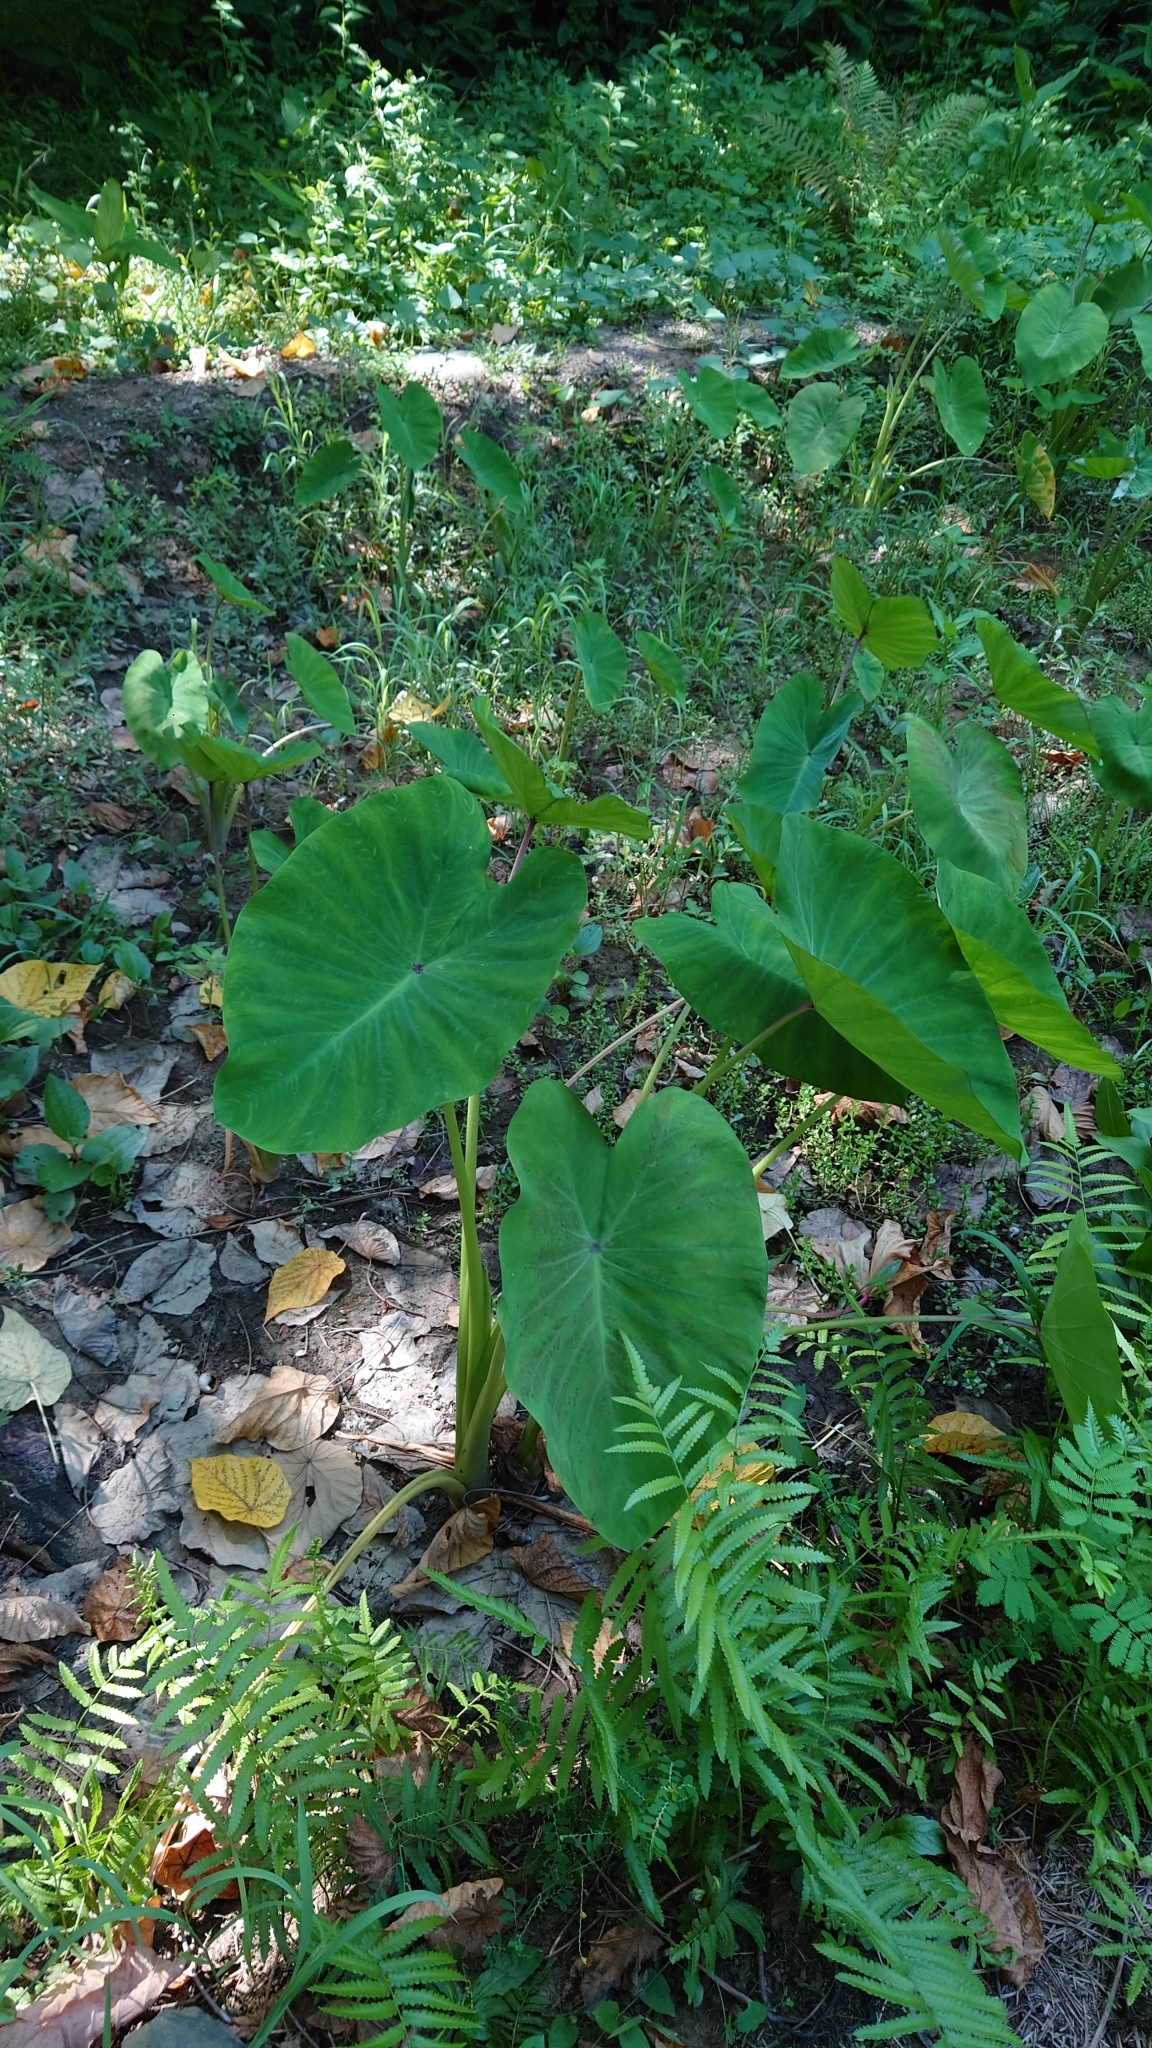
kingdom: Plantae
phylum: Tracheophyta
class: Liliopsida
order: Alismatales
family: Araceae
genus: Colocasia
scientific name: Colocasia esculenta
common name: Taro
